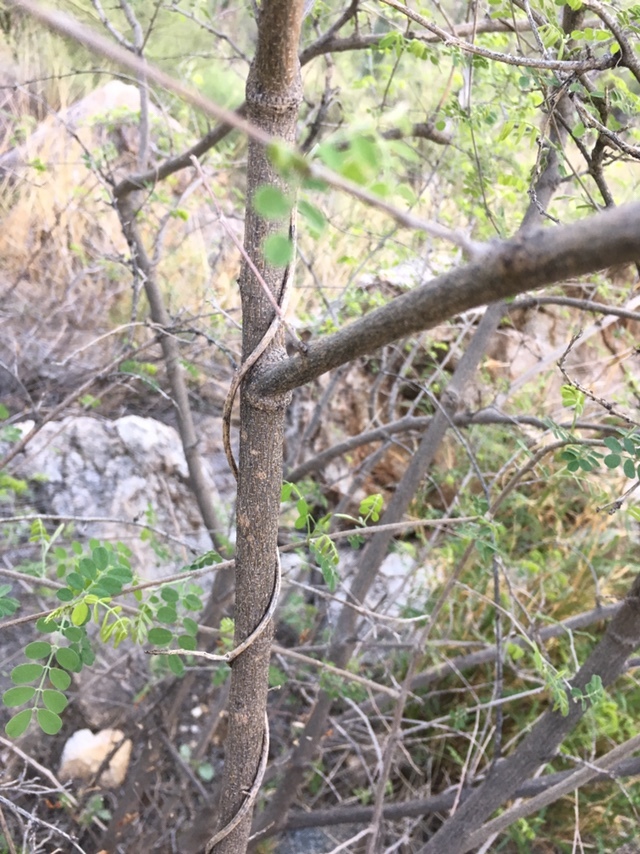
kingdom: Plantae
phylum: Tracheophyta
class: Magnoliopsida
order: Fabales
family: Fabaceae
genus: Coursetia
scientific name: Coursetia glandulosa
